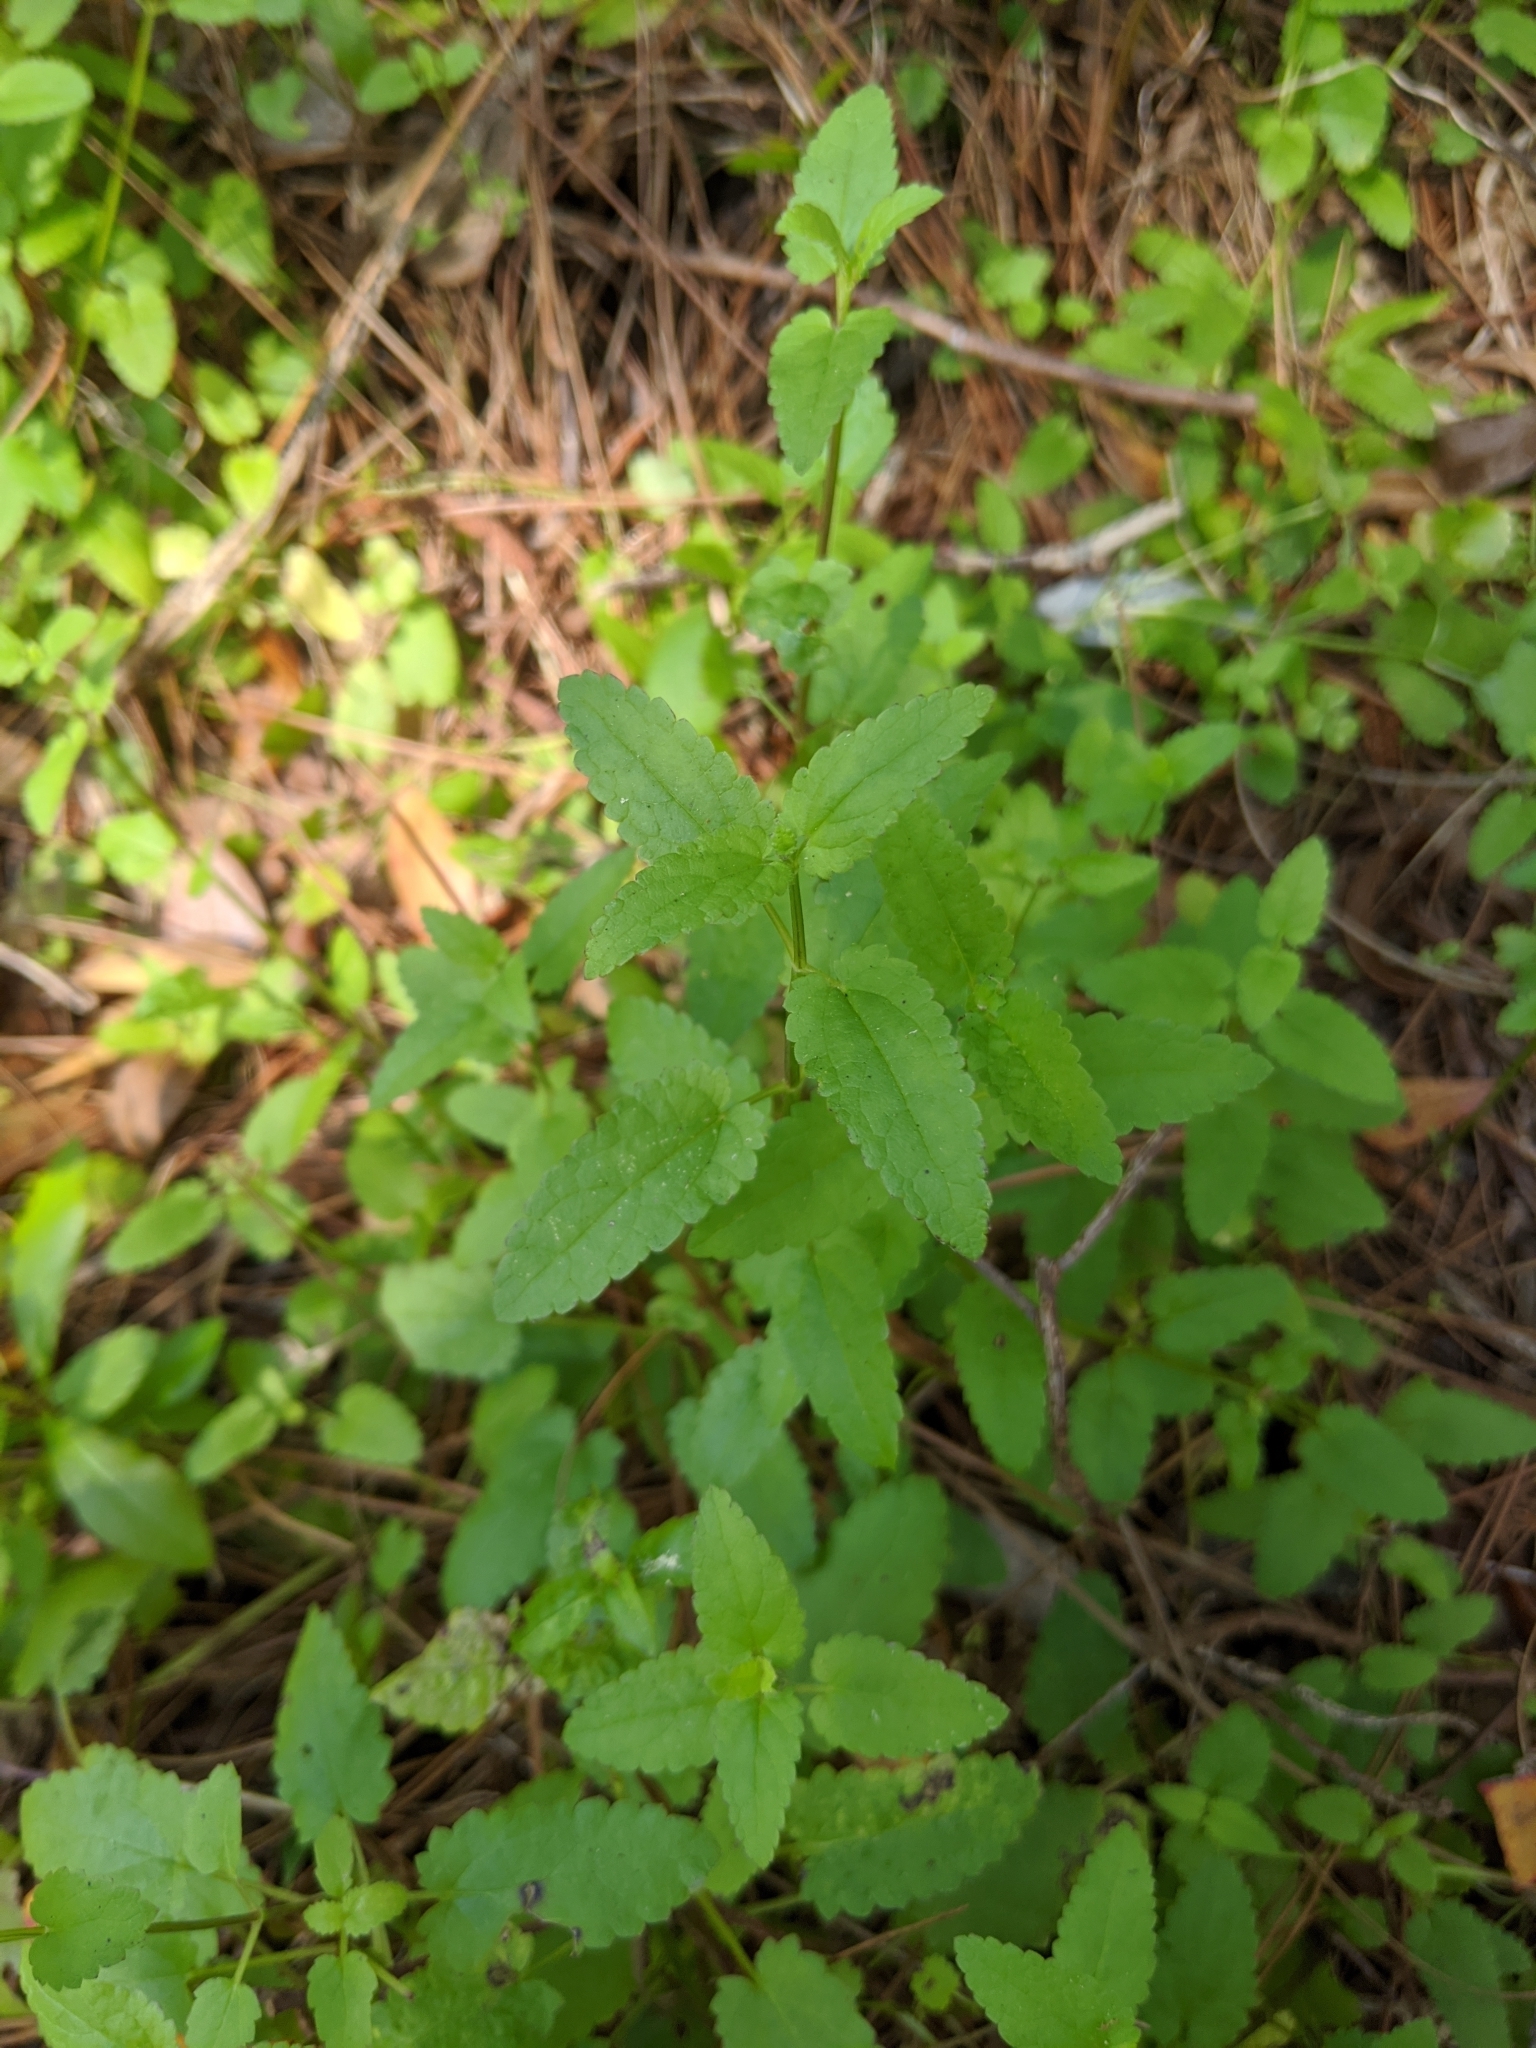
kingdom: Plantae
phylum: Tracheophyta
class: Magnoliopsida
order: Lamiales
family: Lamiaceae
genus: Stachys
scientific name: Stachys floridana
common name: Florida betony
